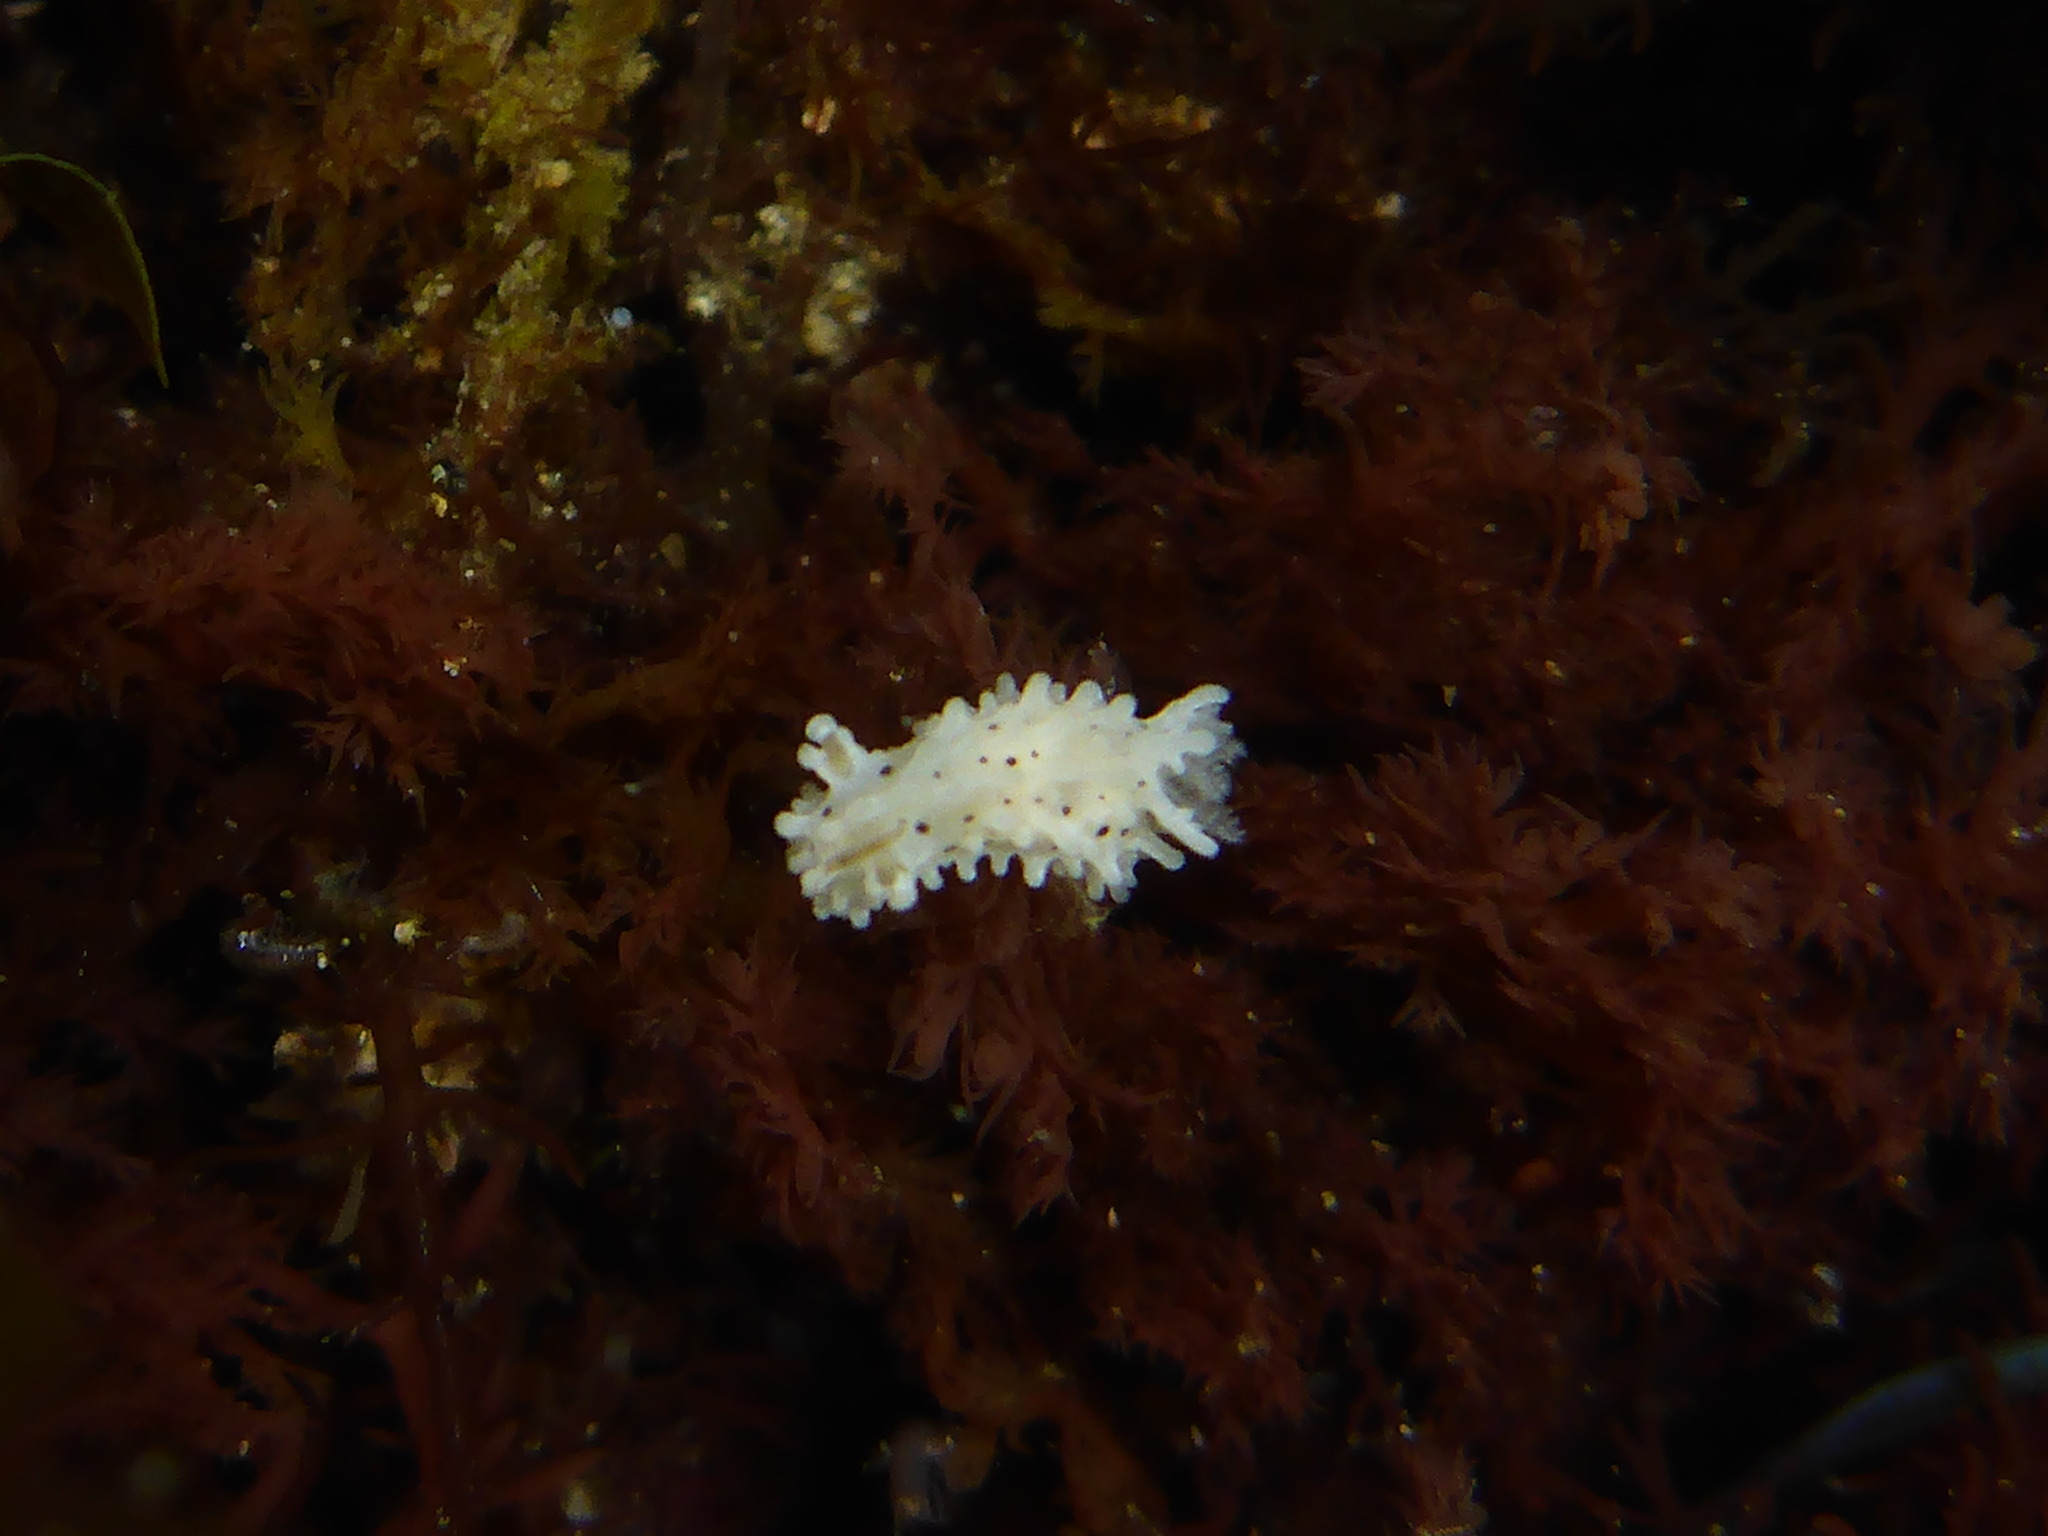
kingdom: Animalia
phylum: Mollusca
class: Gastropoda
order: Nudibranchia
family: Aegiridae
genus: Aegires
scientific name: Aegires albopunctatus
